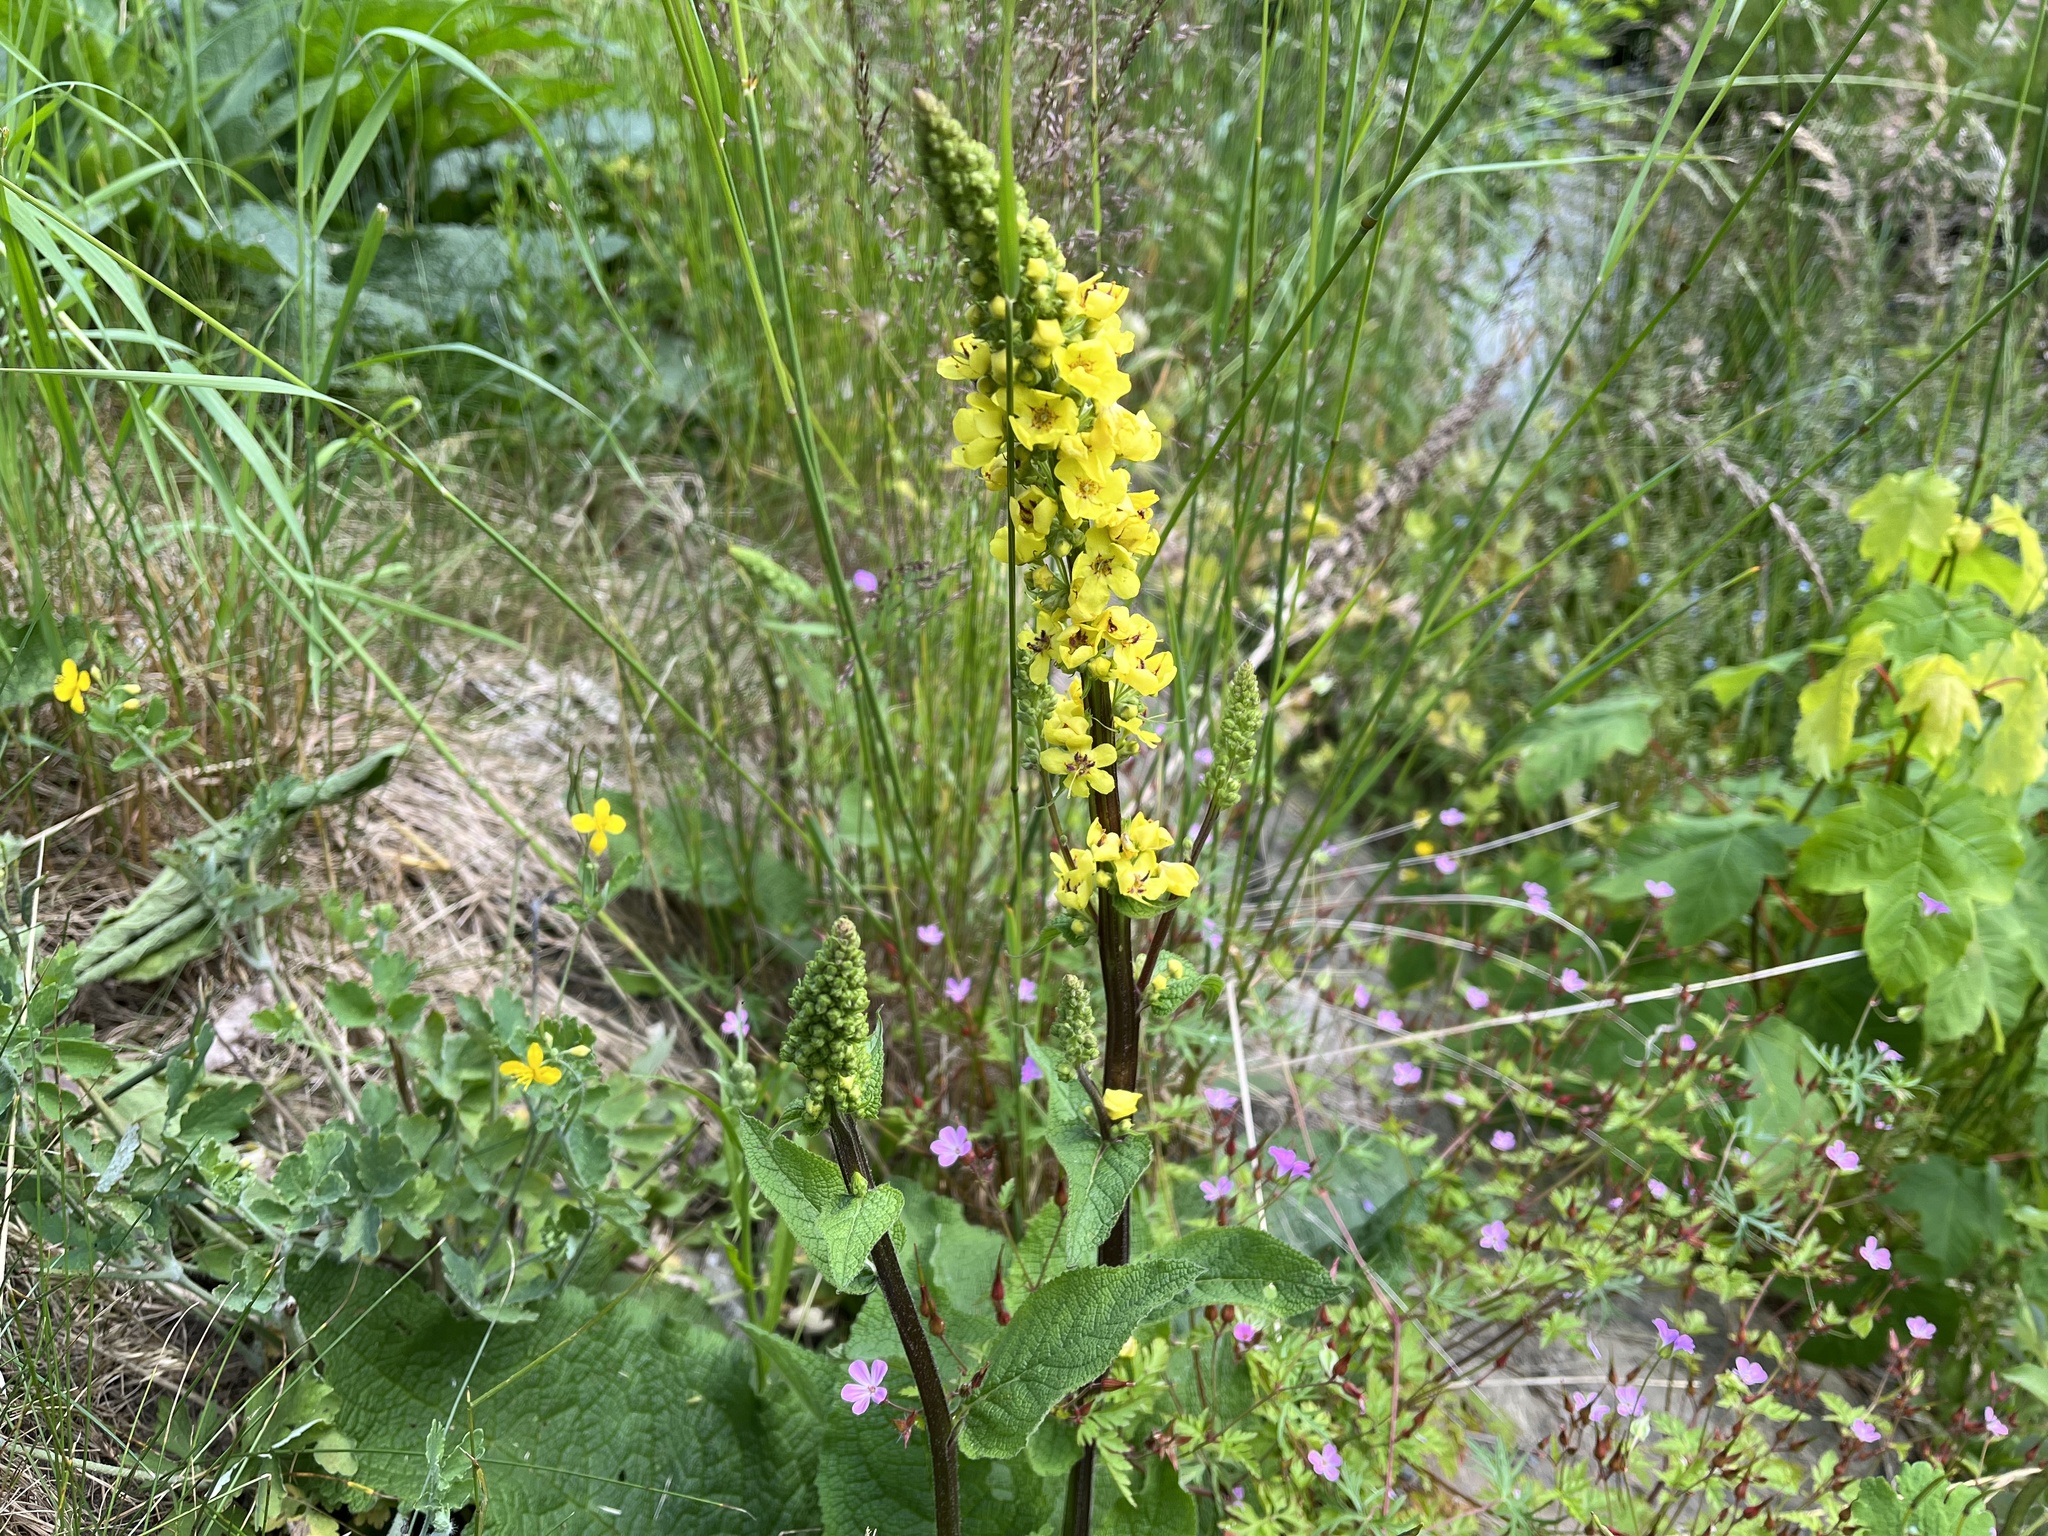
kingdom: Plantae
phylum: Tracheophyta
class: Magnoliopsida
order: Lamiales
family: Scrophulariaceae
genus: Verbascum
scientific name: Verbascum nigrum
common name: Dark mullein
